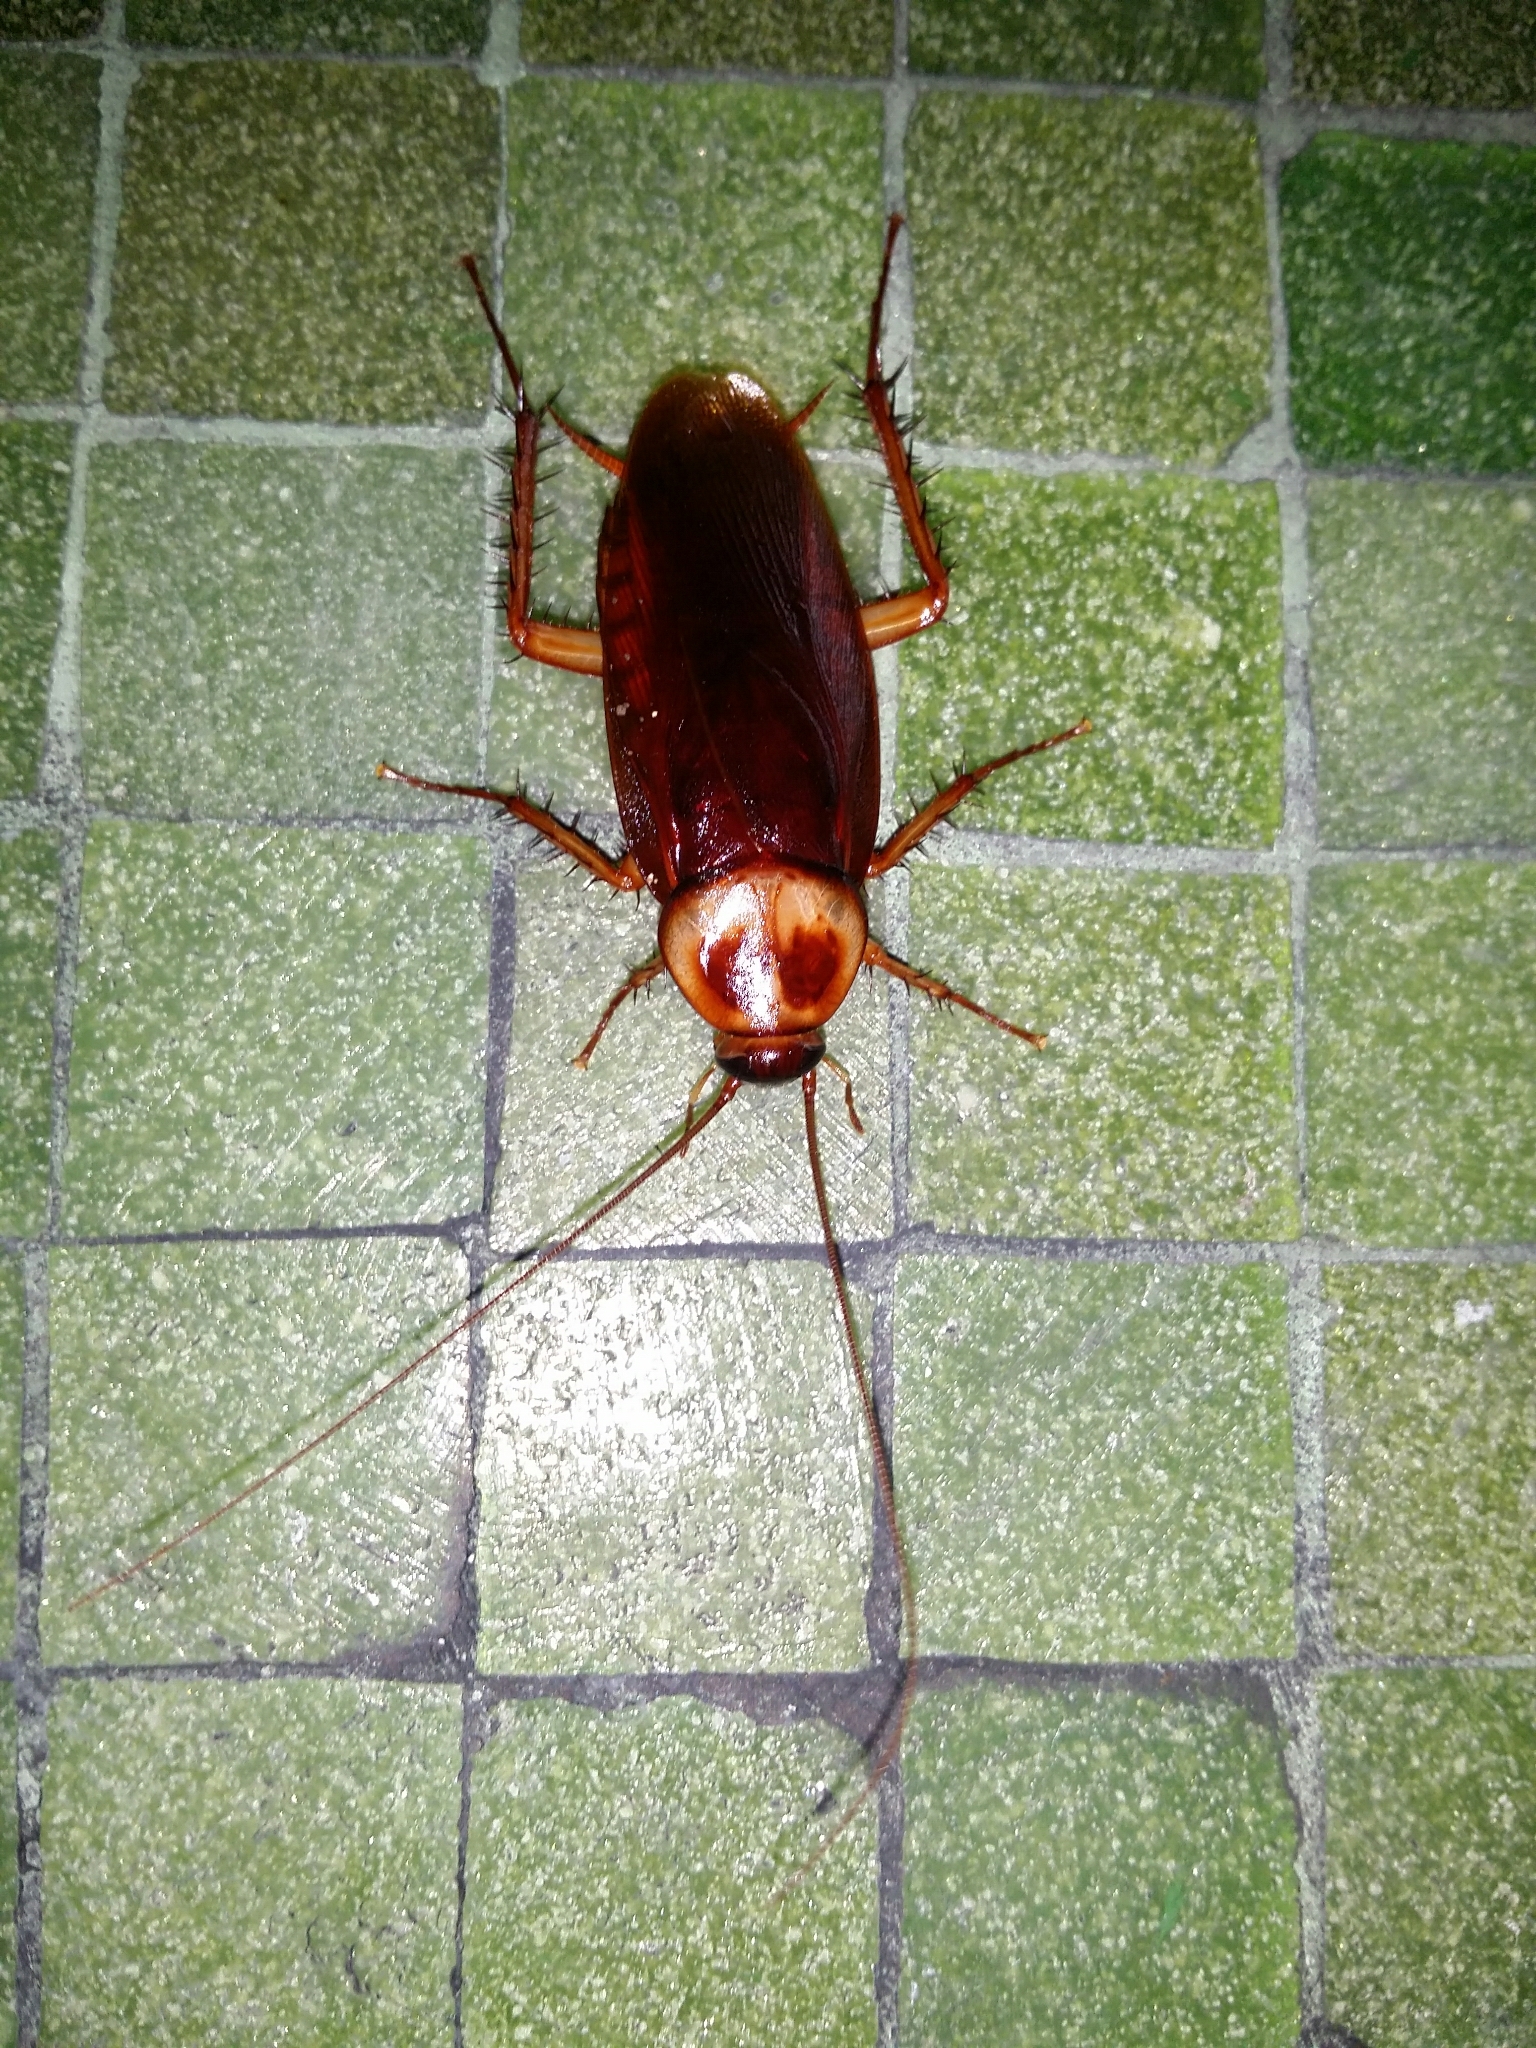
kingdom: Animalia
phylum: Arthropoda
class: Insecta
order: Blattodea
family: Blattidae
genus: Periplaneta
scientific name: Periplaneta americana
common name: American cockroach
